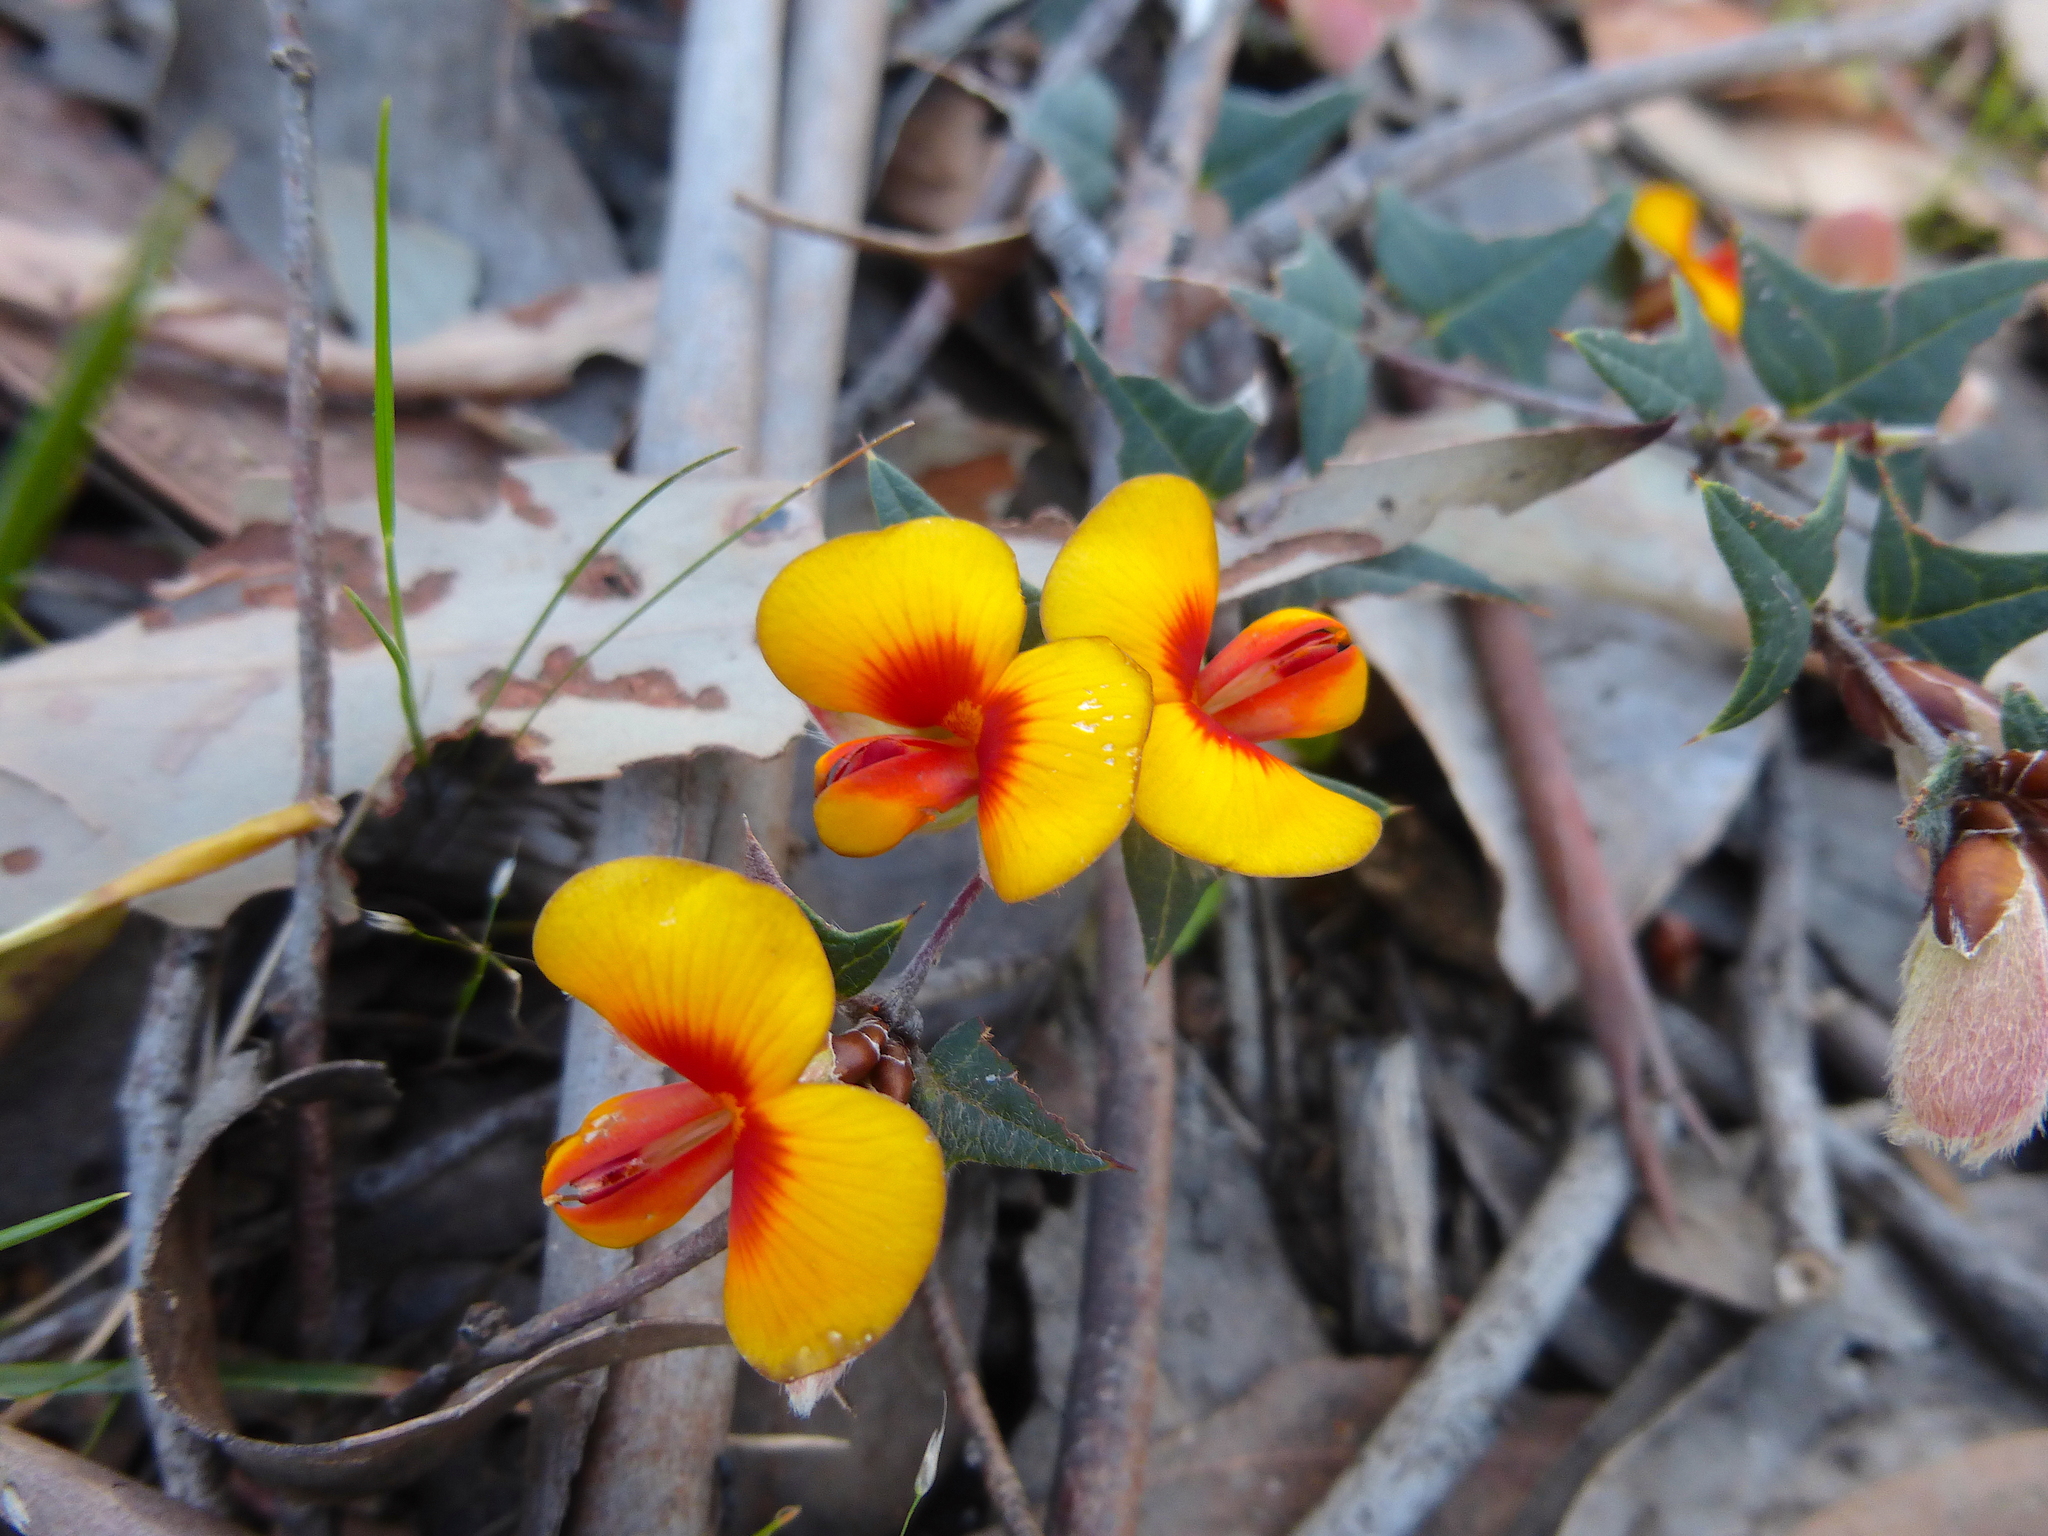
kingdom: Plantae
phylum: Tracheophyta
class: Magnoliopsida
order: Fabales
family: Fabaceae
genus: Platylobium
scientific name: Platylobium obtusangulum
